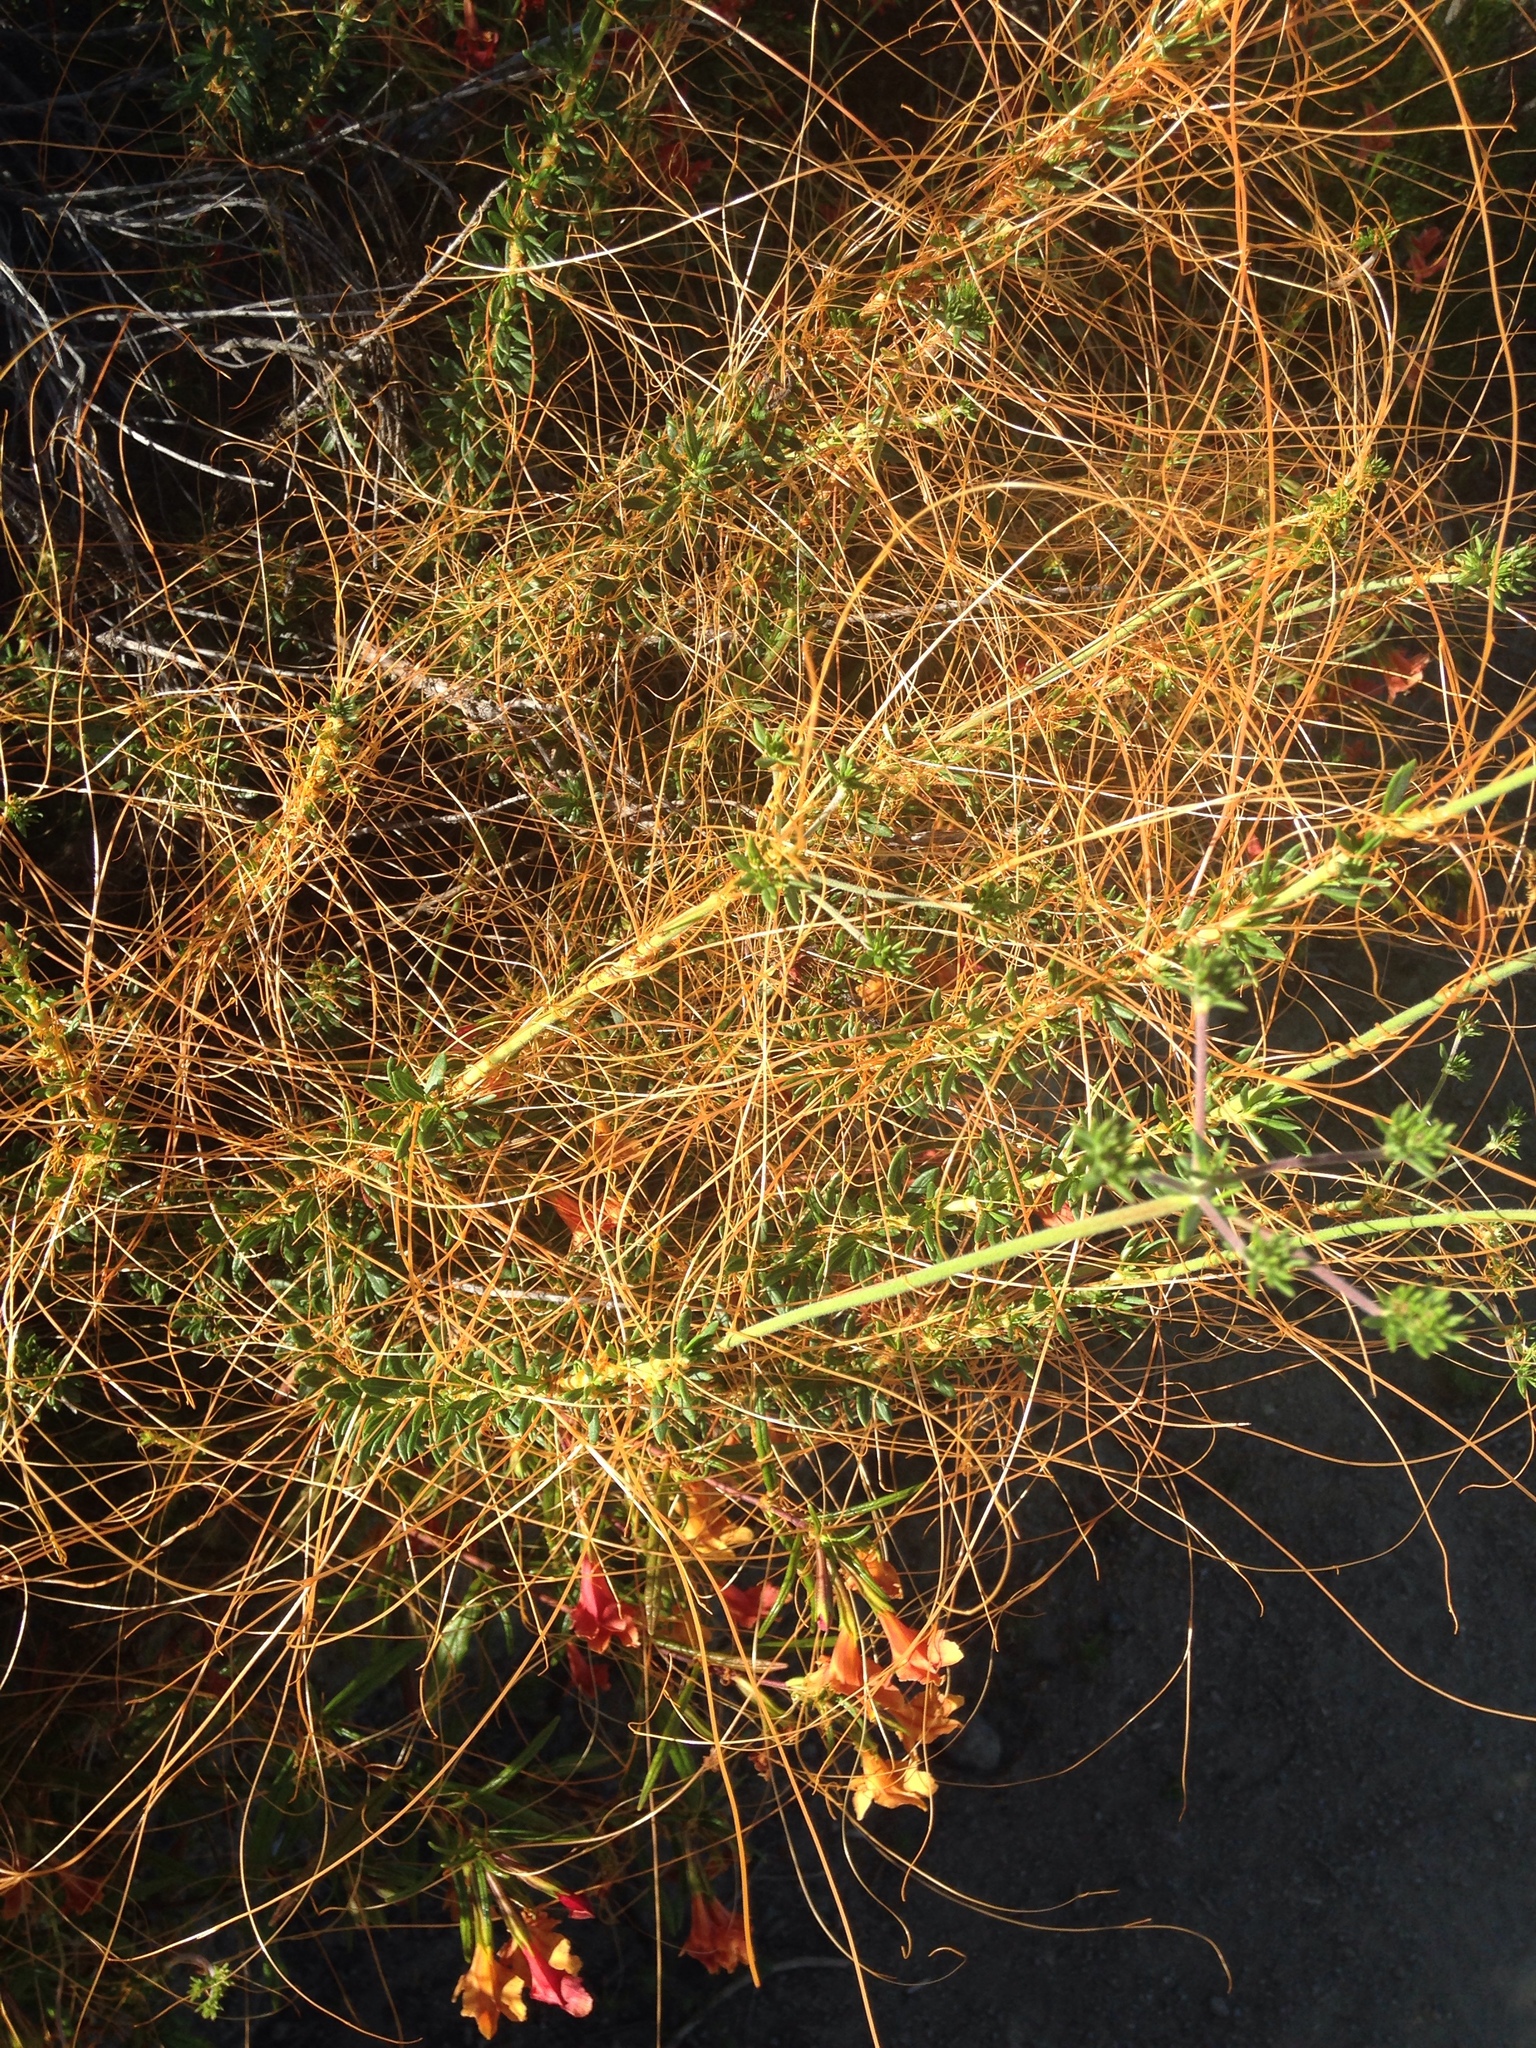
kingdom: Plantae
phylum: Tracheophyta
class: Magnoliopsida
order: Solanales
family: Convolvulaceae
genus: Cuscuta
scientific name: Cuscuta californica
